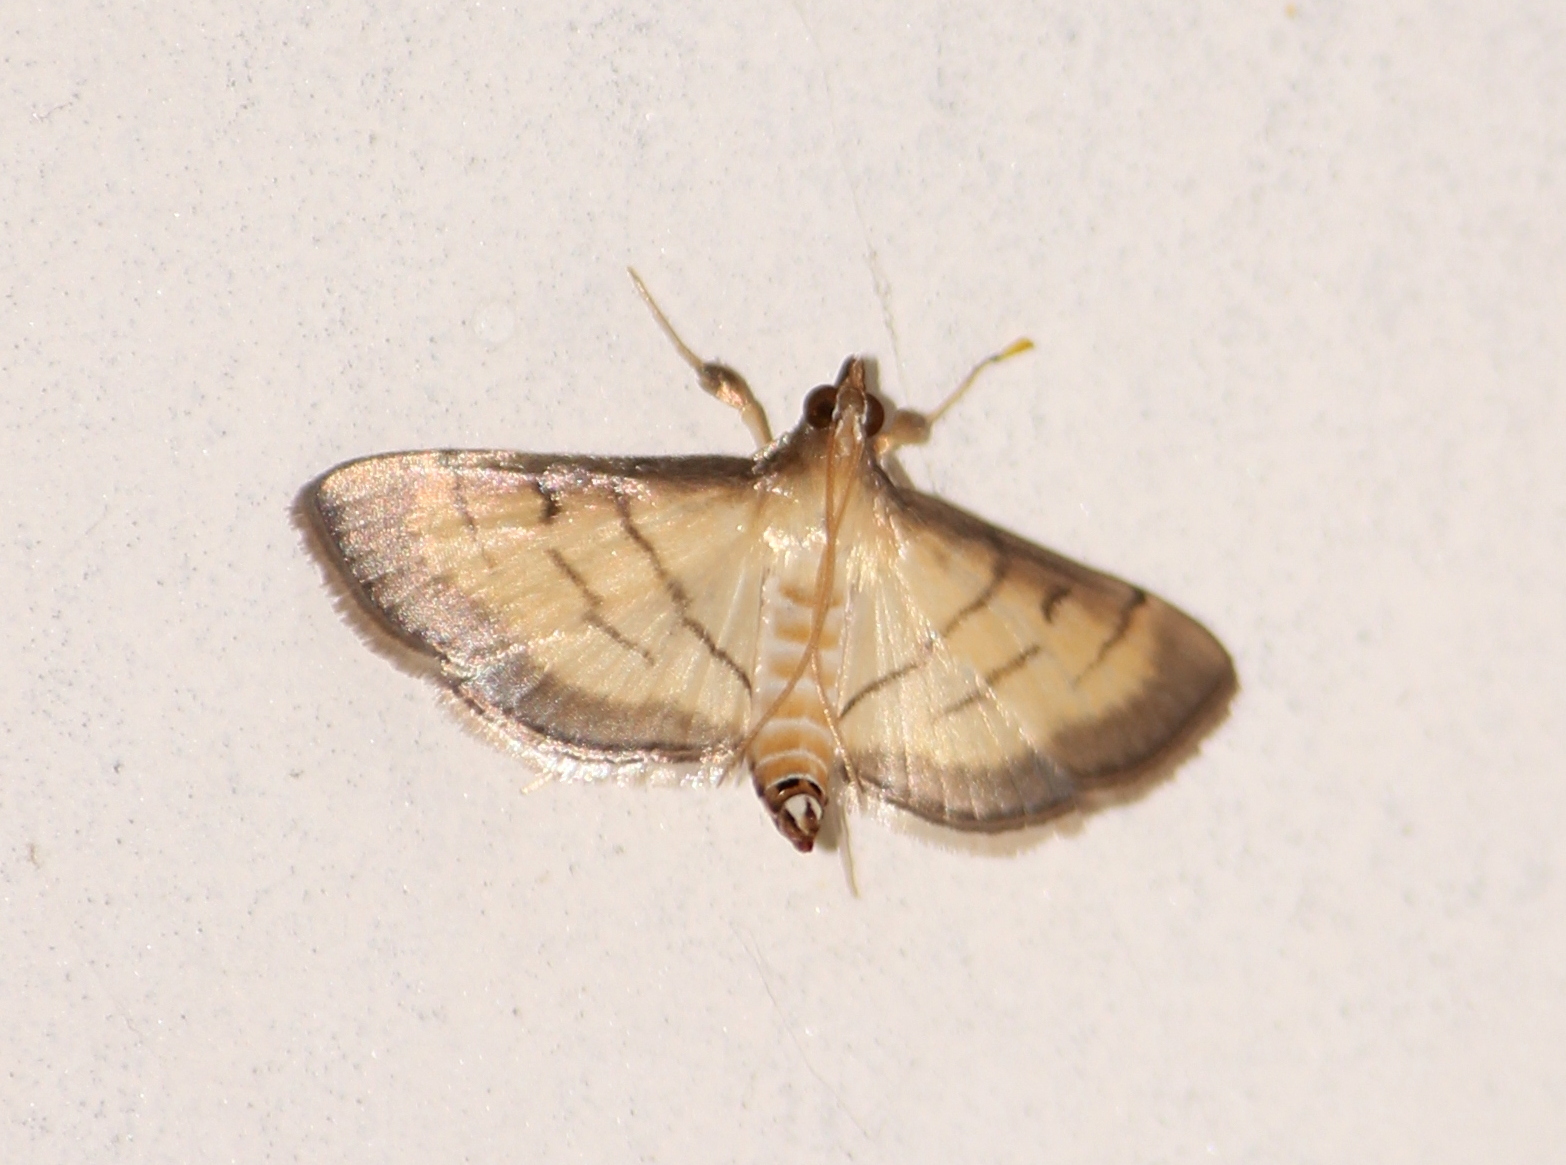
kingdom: Animalia
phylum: Arthropoda
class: Insecta
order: Lepidoptera
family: Crambidae
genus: Cnaphalocrocis
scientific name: Cnaphalocrocis patnalis
